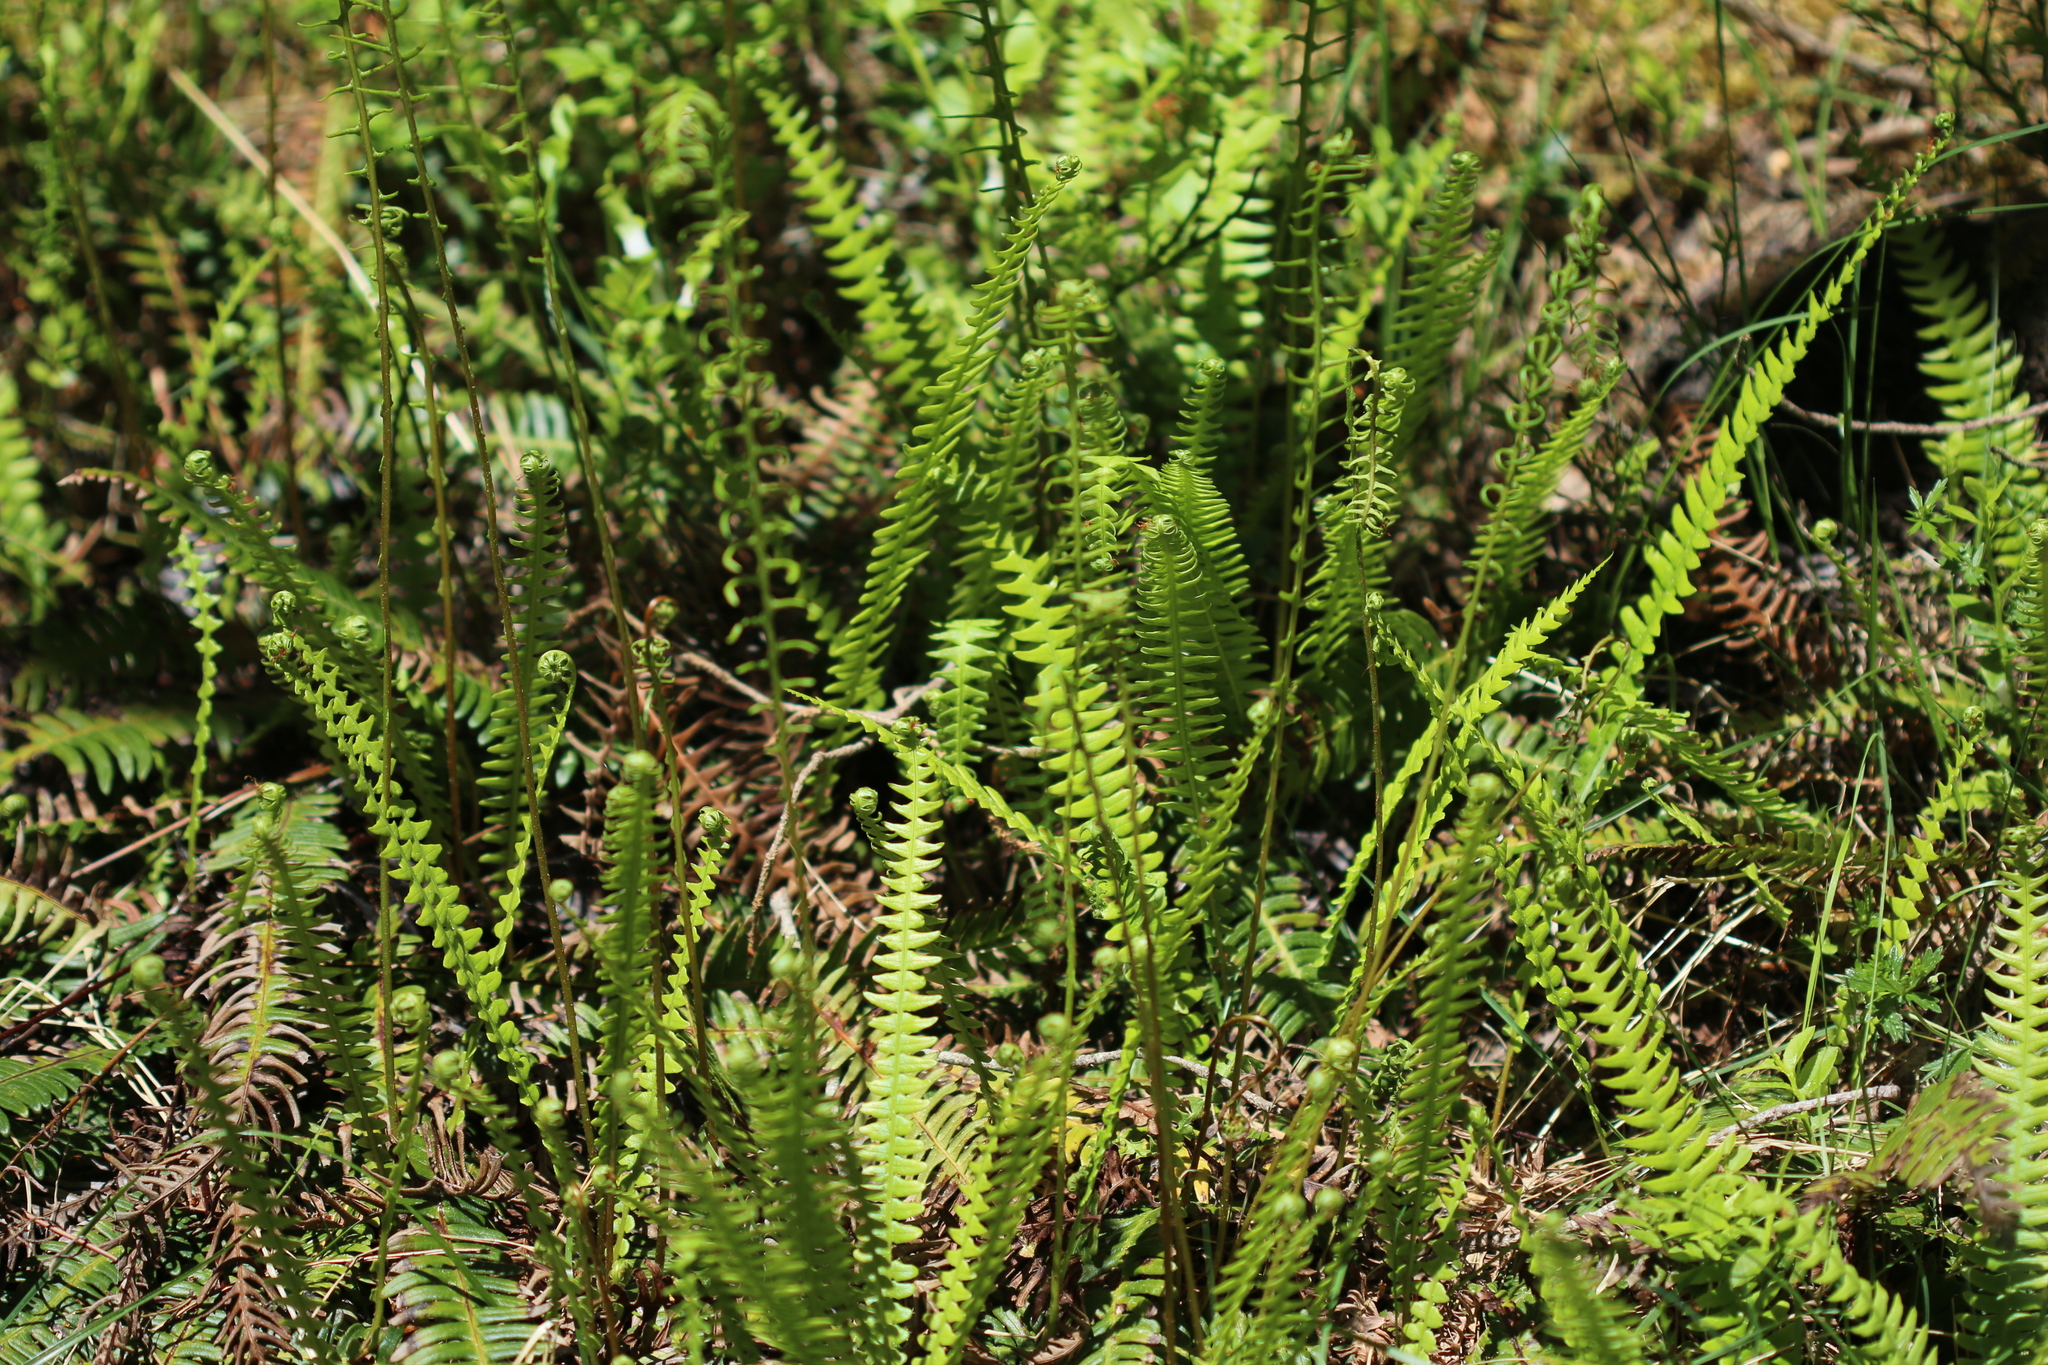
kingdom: Plantae
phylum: Tracheophyta
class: Polypodiopsida
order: Polypodiales
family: Blechnaceae
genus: Struthiopteris
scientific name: Struthiopteris spicant
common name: Deer fern
